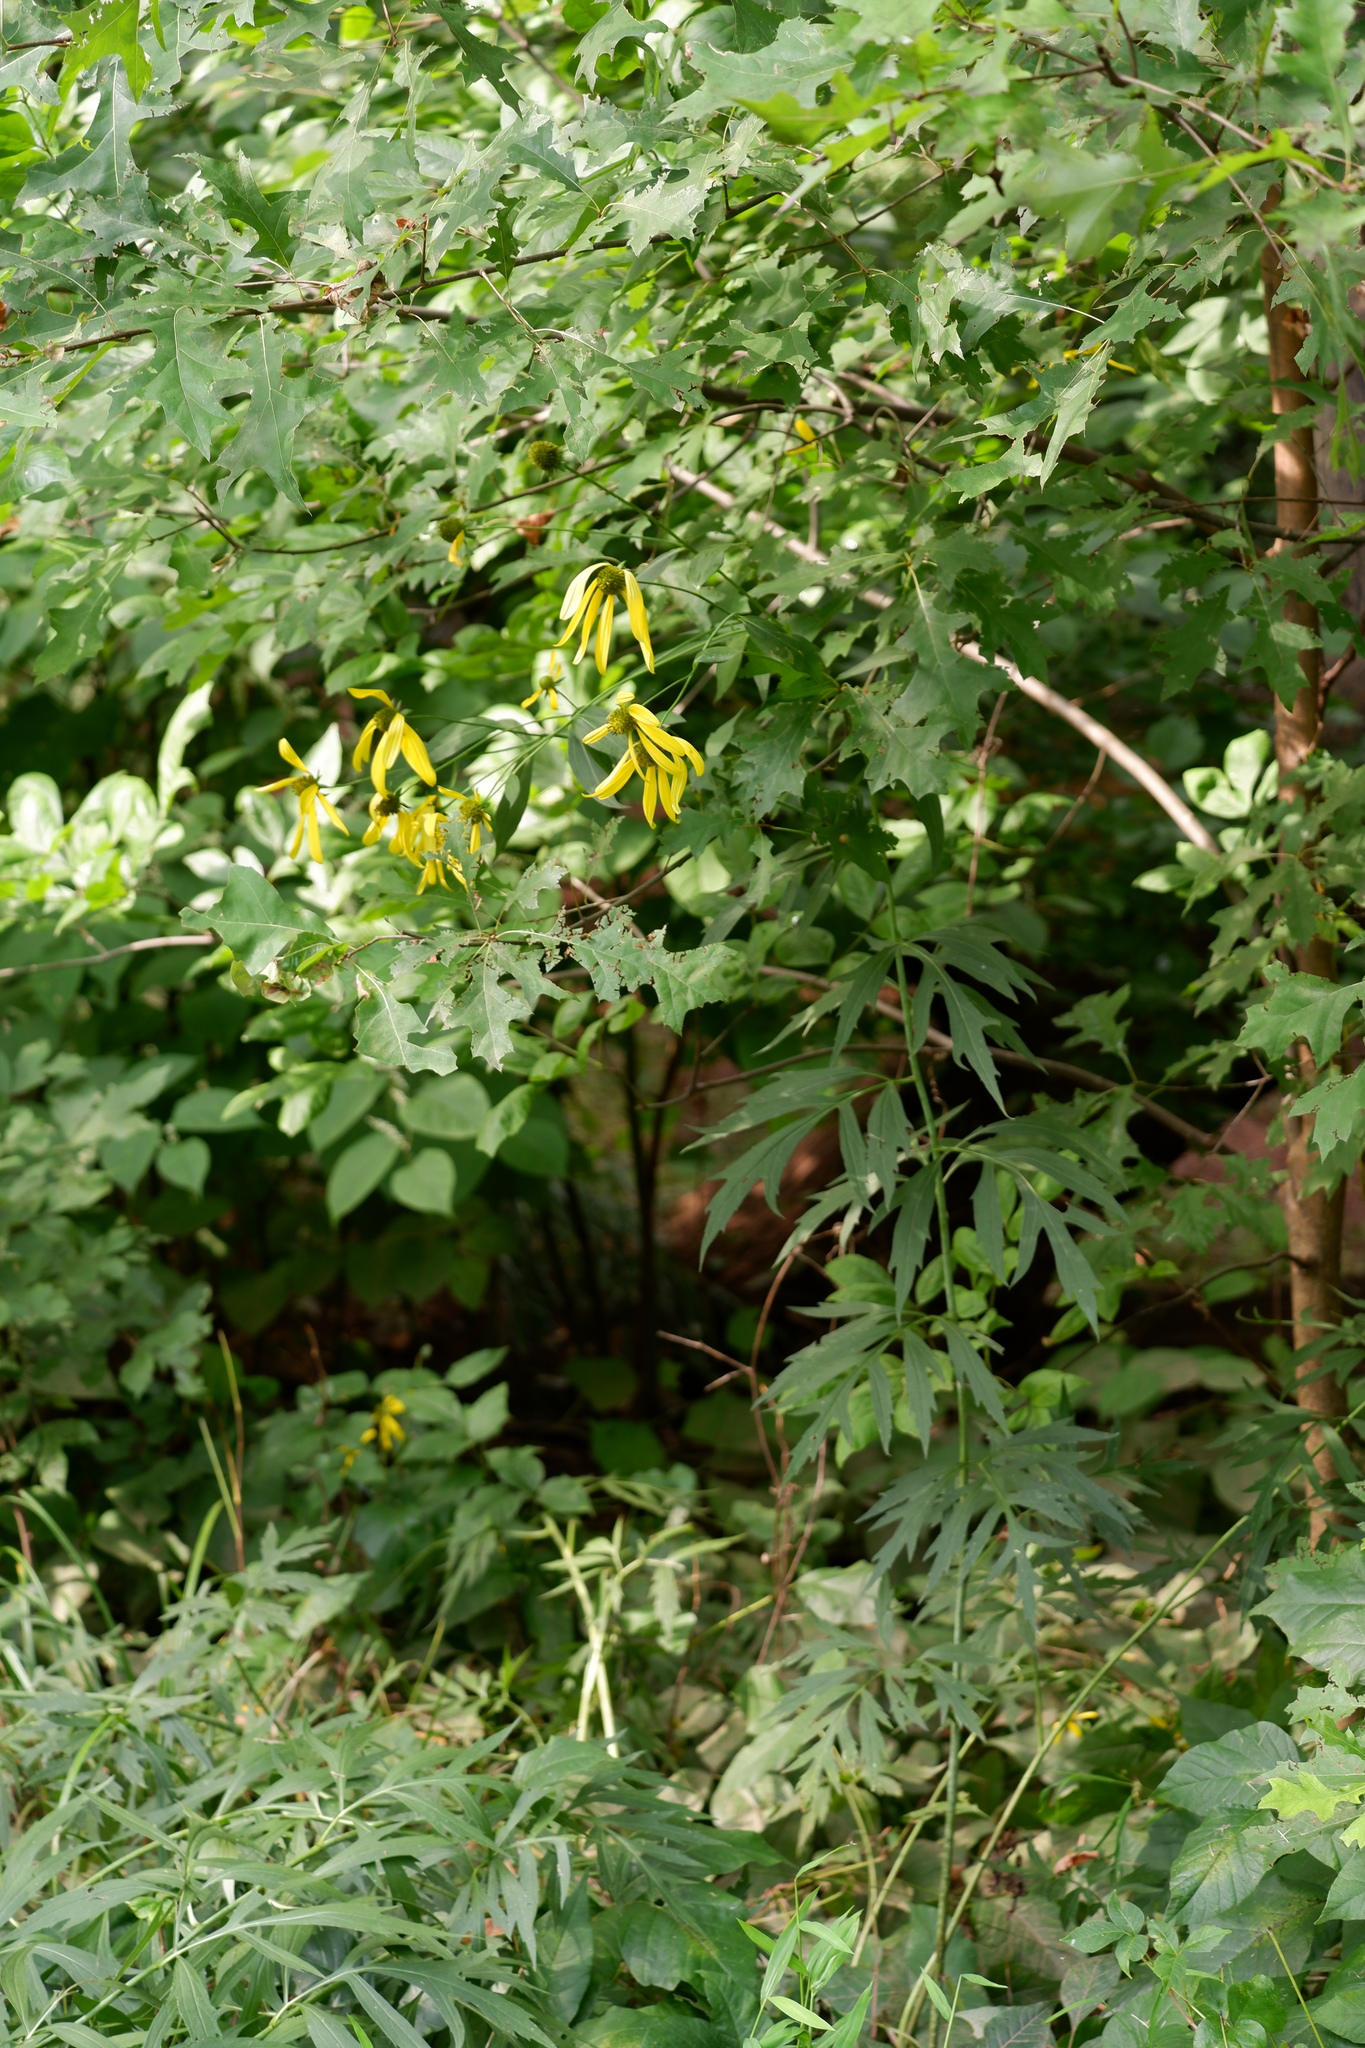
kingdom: Plantae
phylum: Tracheophyta
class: Magnoliopsida
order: Asterales
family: Asteraceae
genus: Rudbeckia
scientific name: Rudbeckia laciniata
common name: Coneflower
